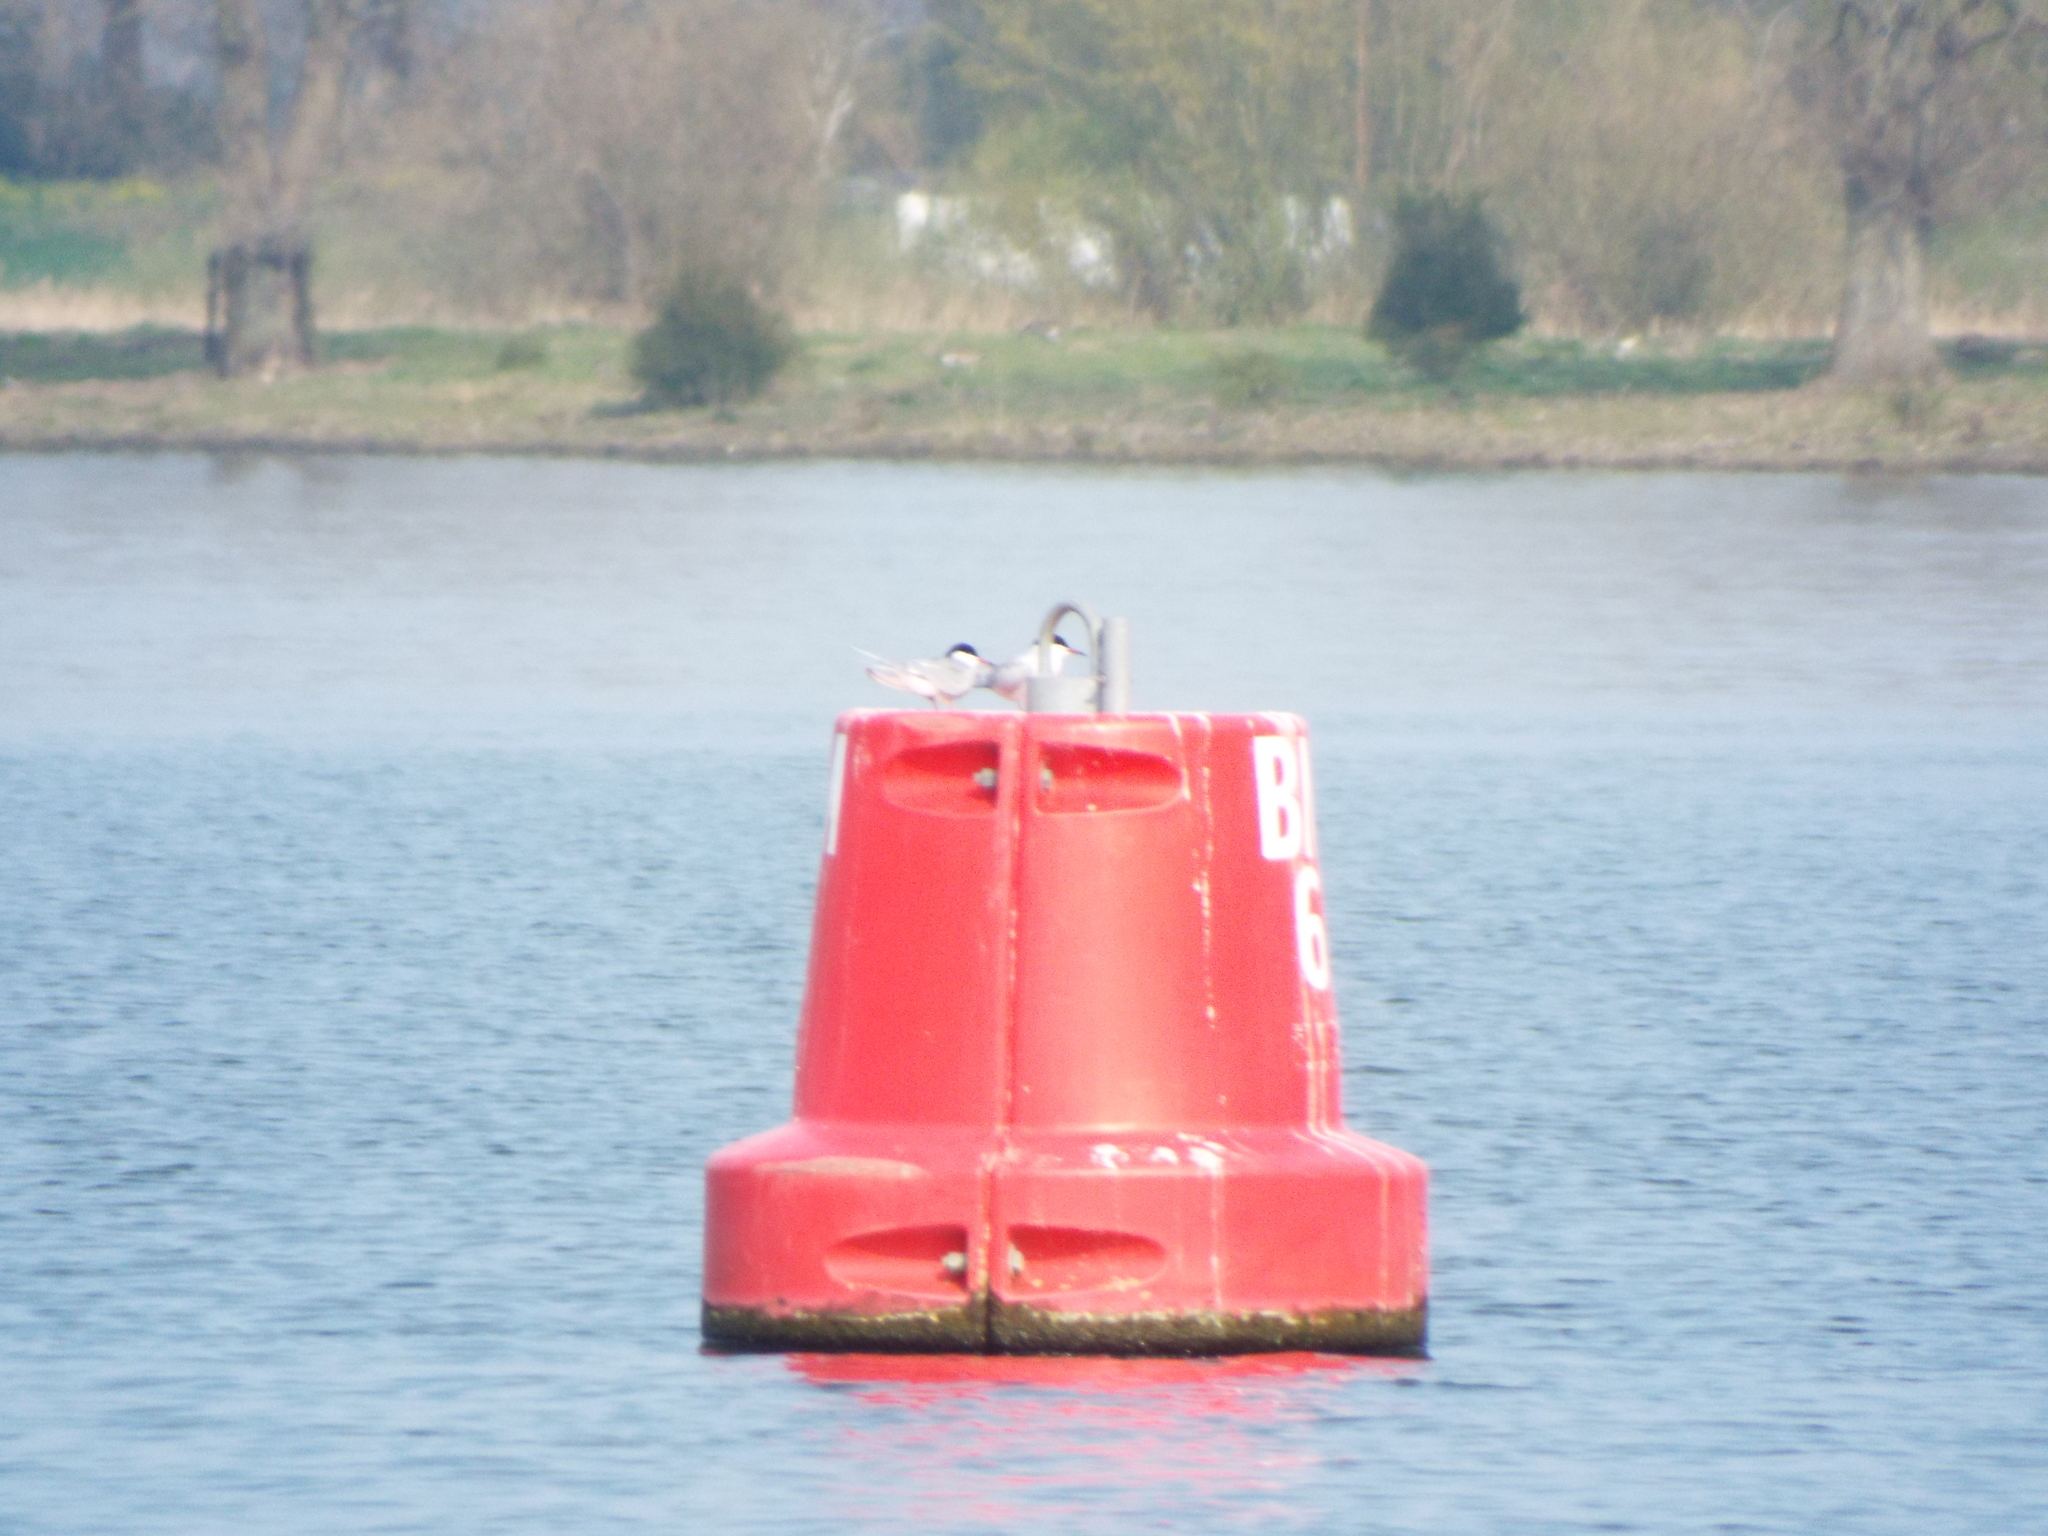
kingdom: Animalia
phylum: Chordata
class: Aves
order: Charadriiformes
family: Laridae
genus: Sterna
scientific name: Sterna hirundo
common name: Common tern
